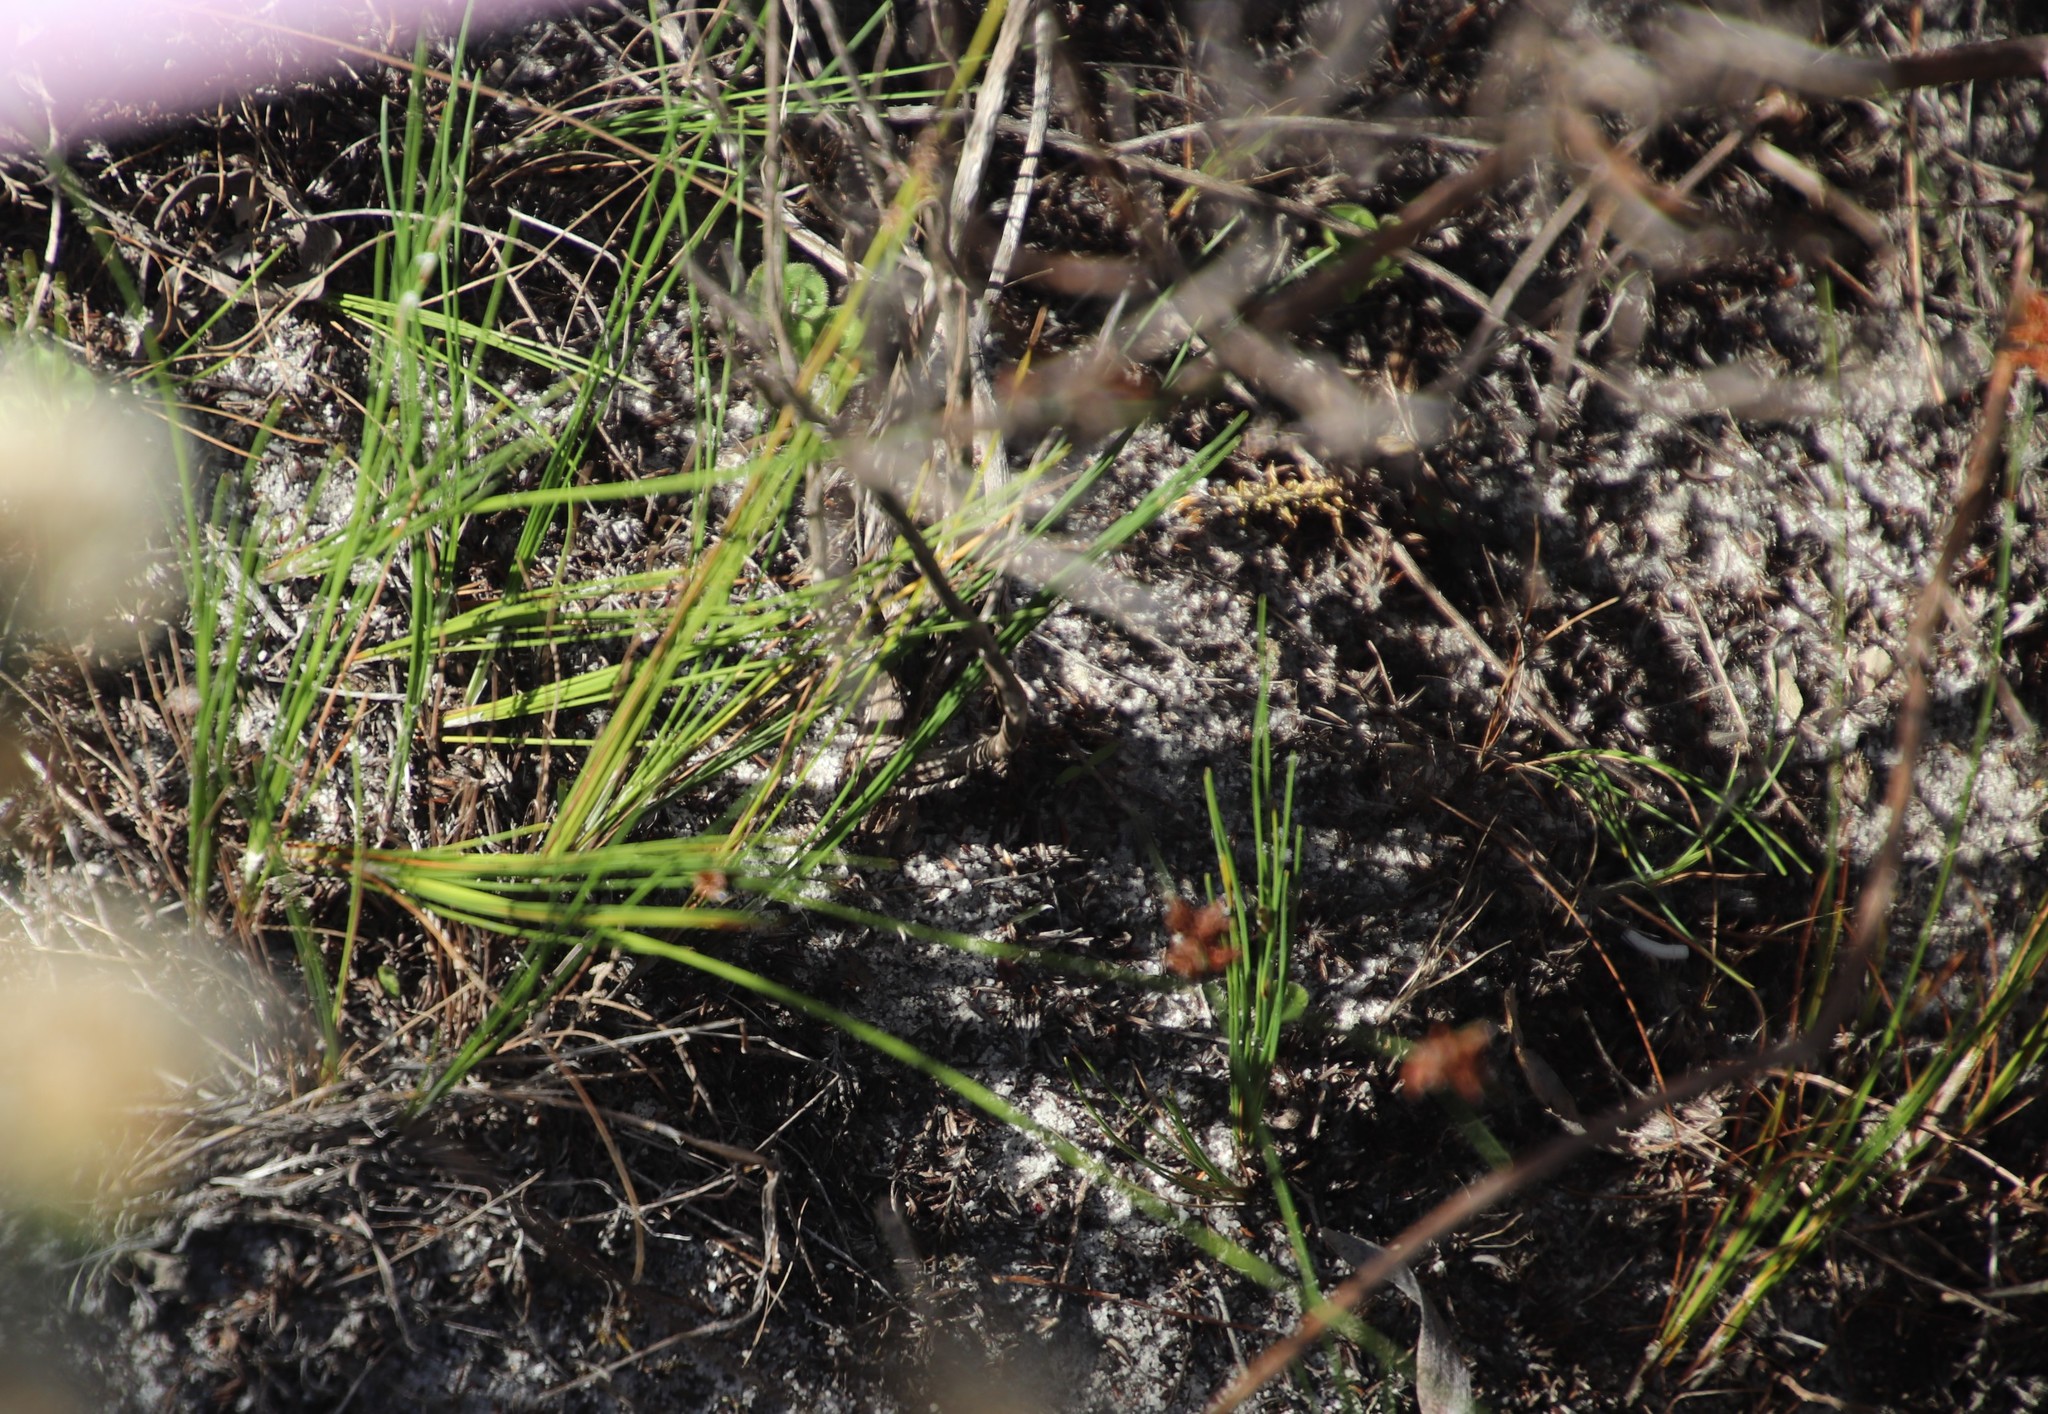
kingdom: Plantae
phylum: Tracheophyta
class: Liliopsida
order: Poales
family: Cyperaceae
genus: Ficinia
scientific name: Ficinia bulbosa
